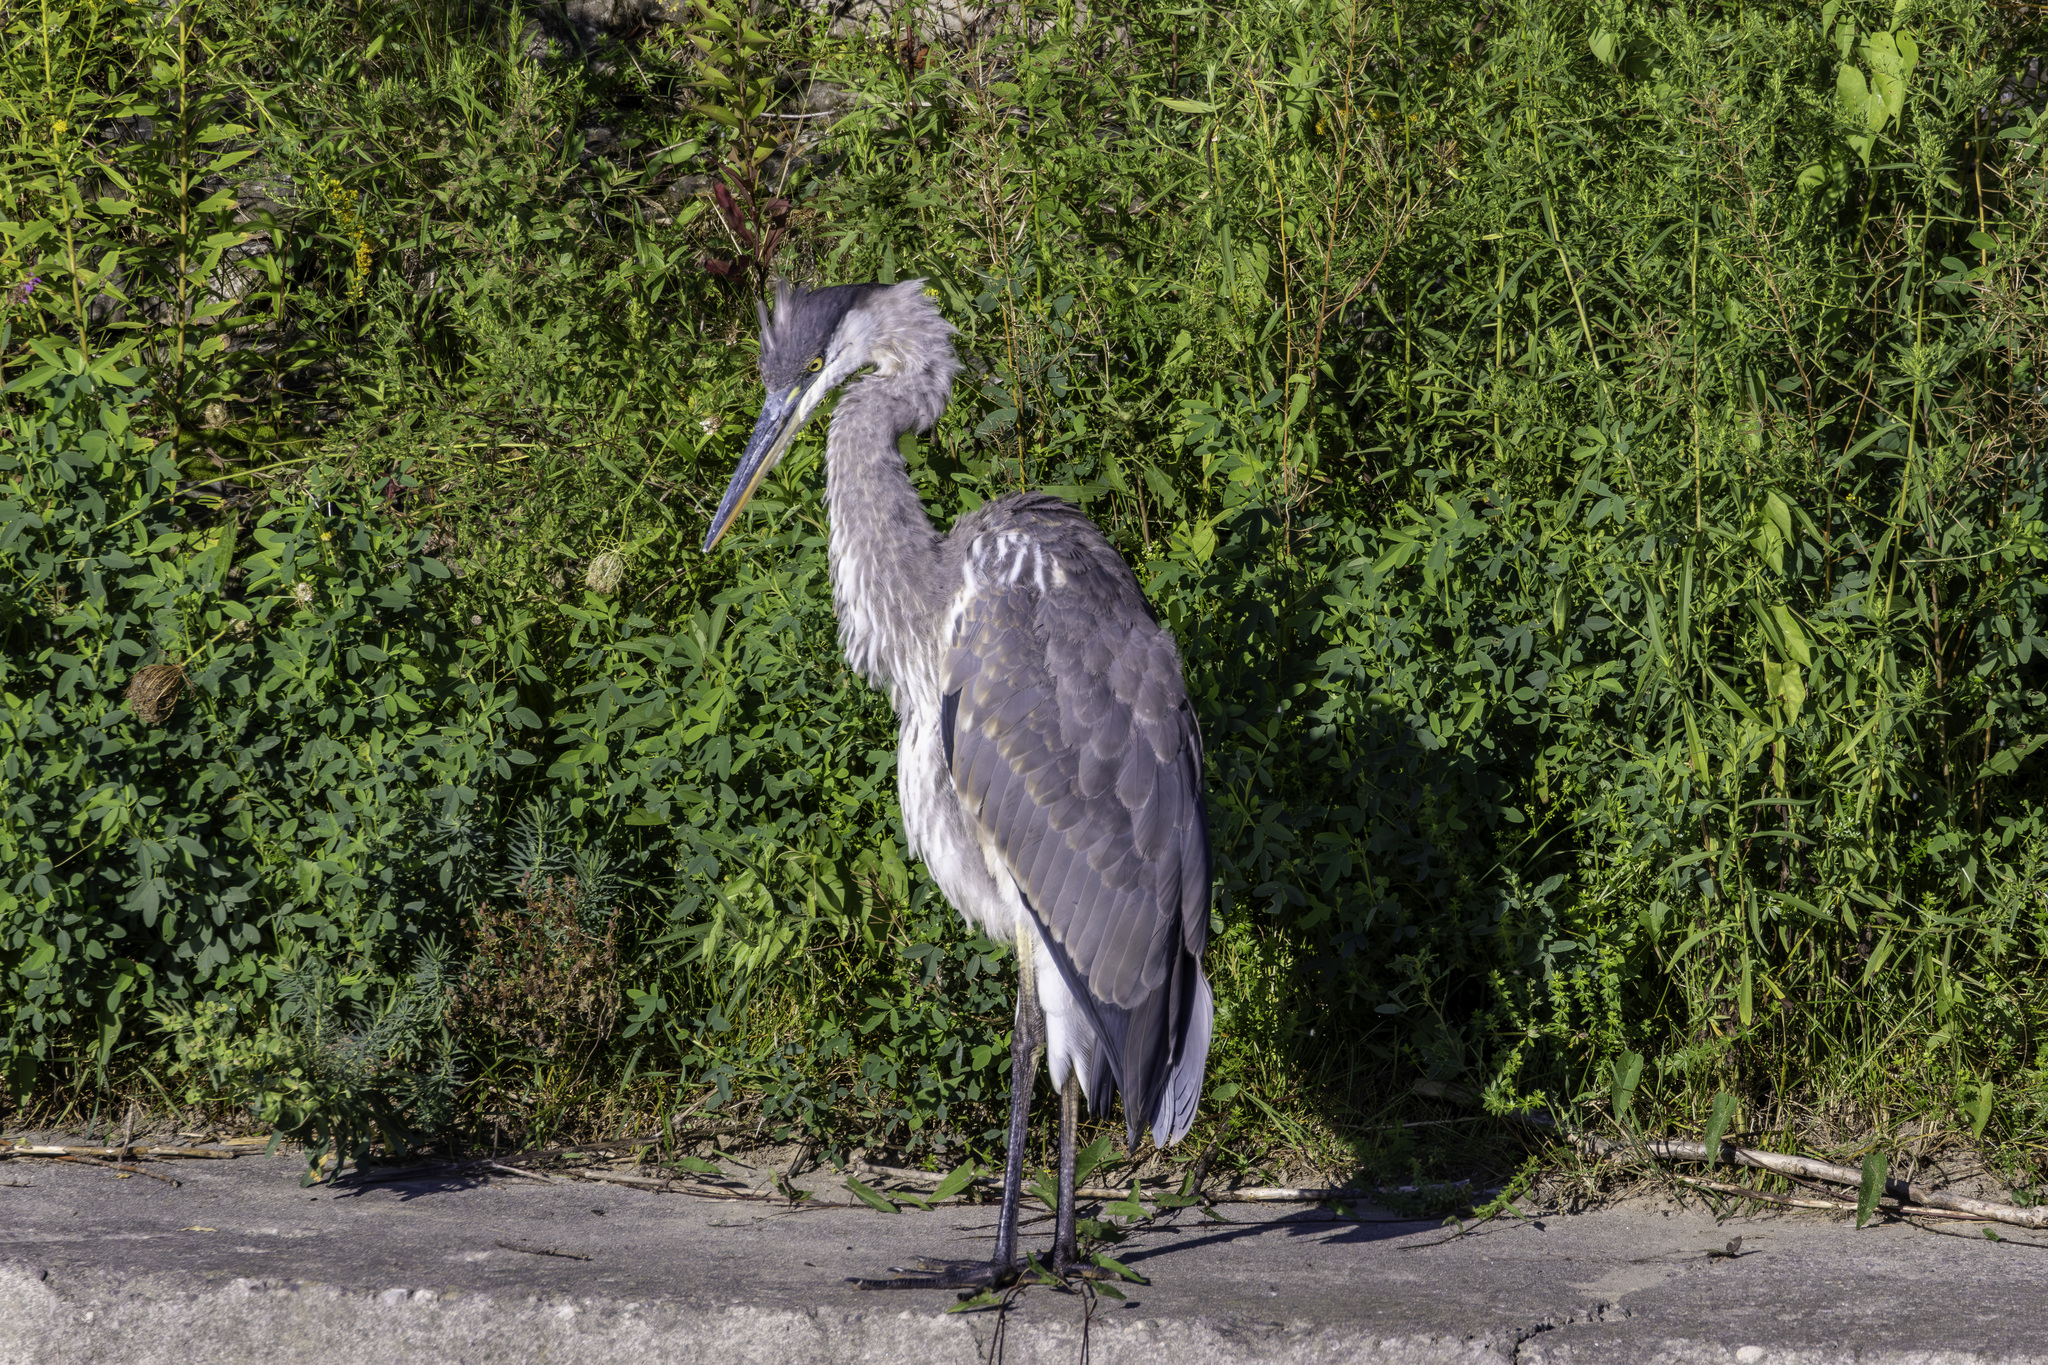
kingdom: Animalia
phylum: Chordata
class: Aves
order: Pelecaniformes
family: Ardeidae
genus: Ardea
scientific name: Ardea herodias
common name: Great blue heron
